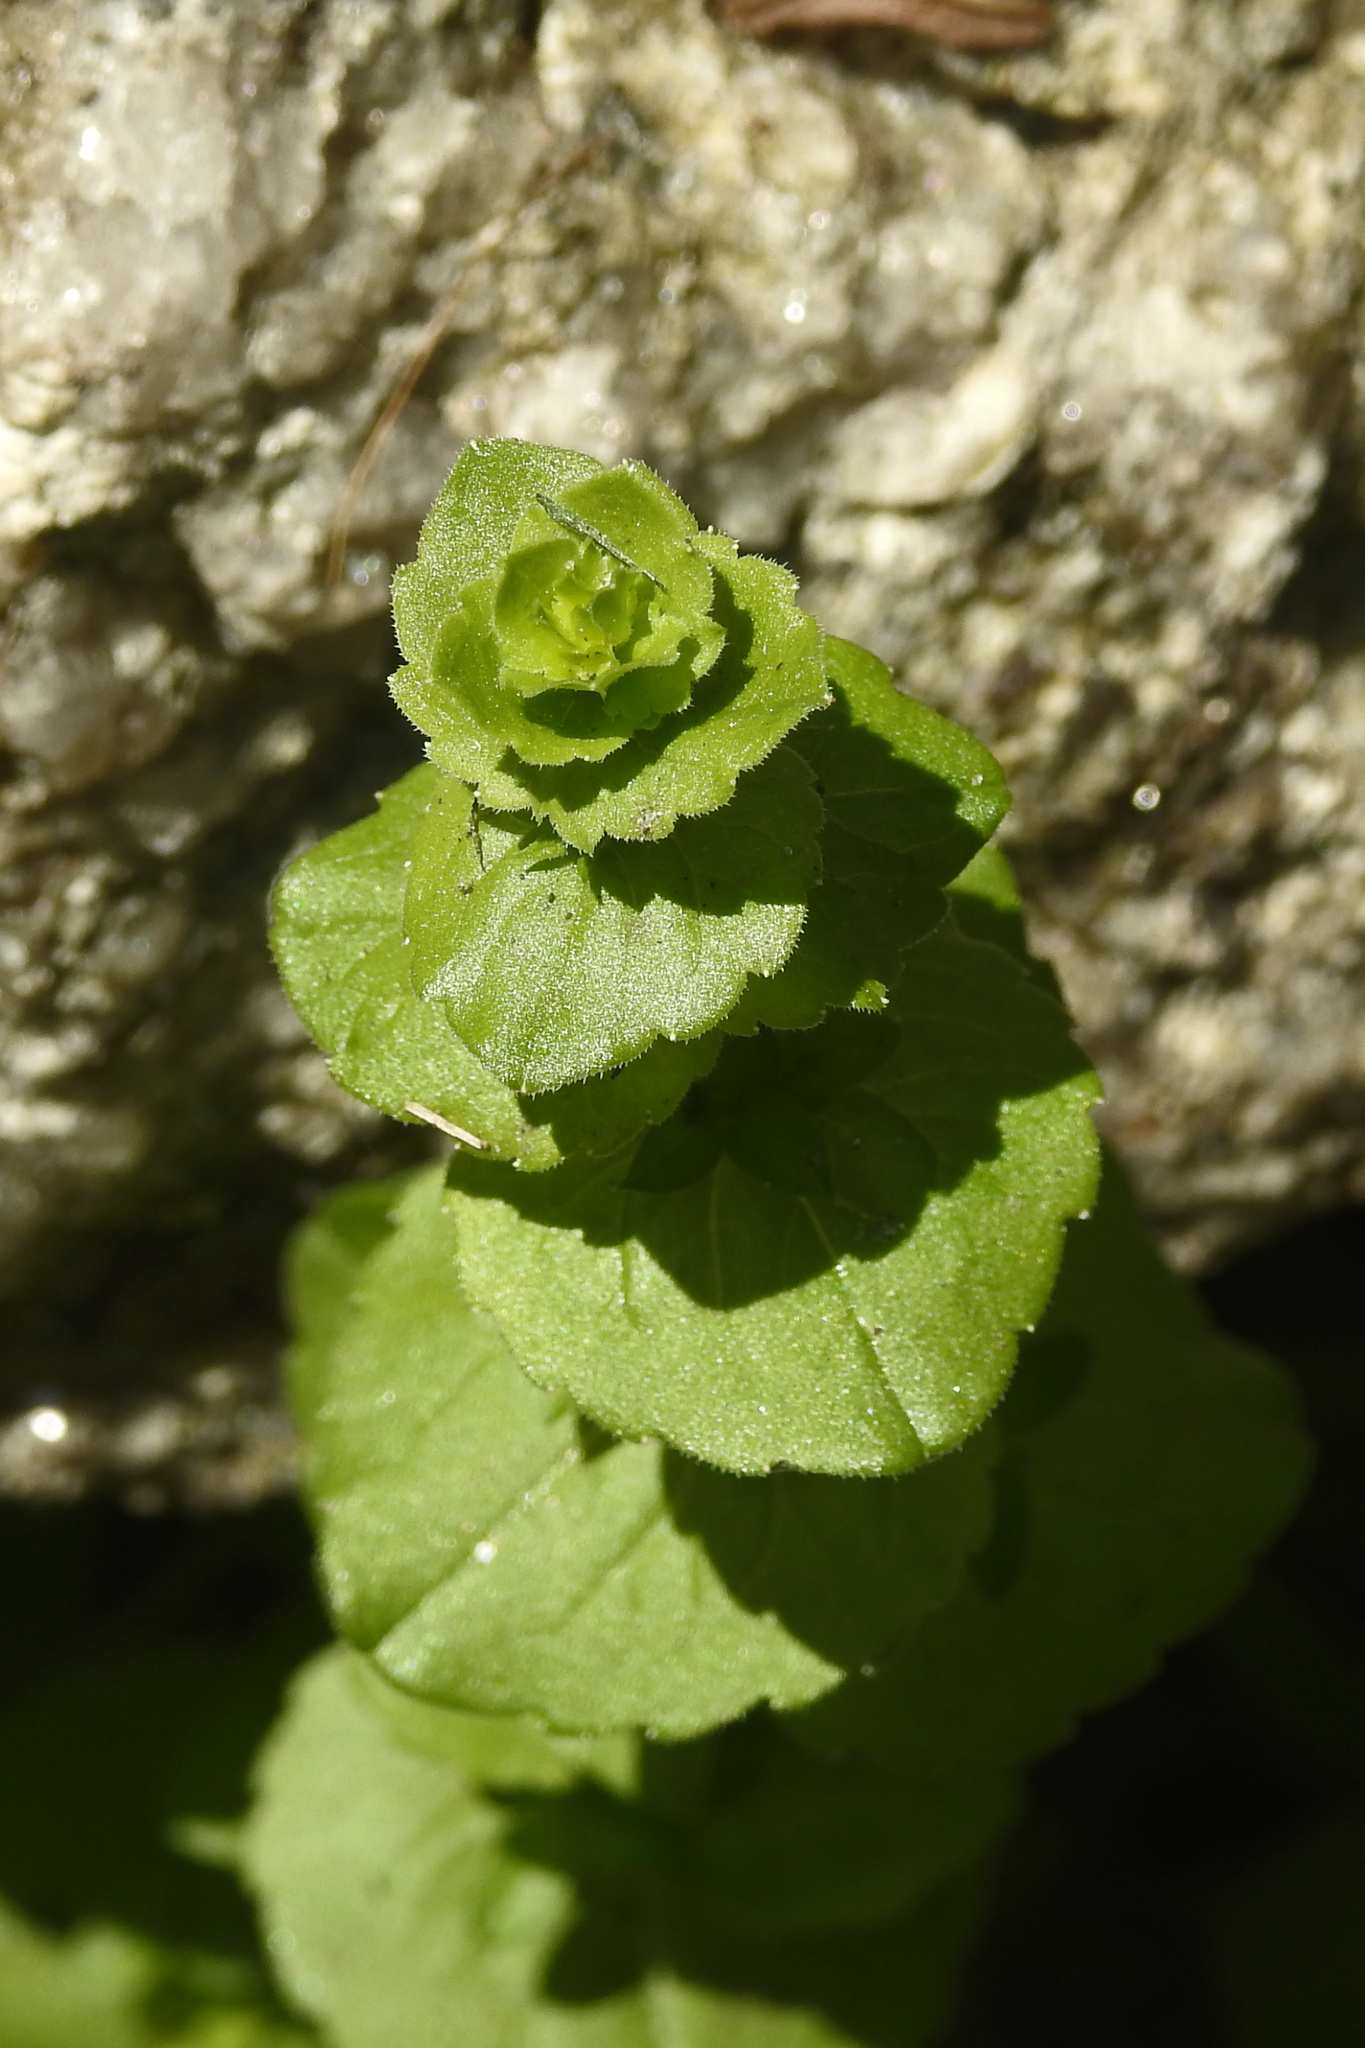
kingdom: Plantae
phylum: Tracheophyta
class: Magnoliopsida
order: Asterales
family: Campanulaceae
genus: Triodanis
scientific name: Triodanis perfoliata
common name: Clasping venus' looking-glass
